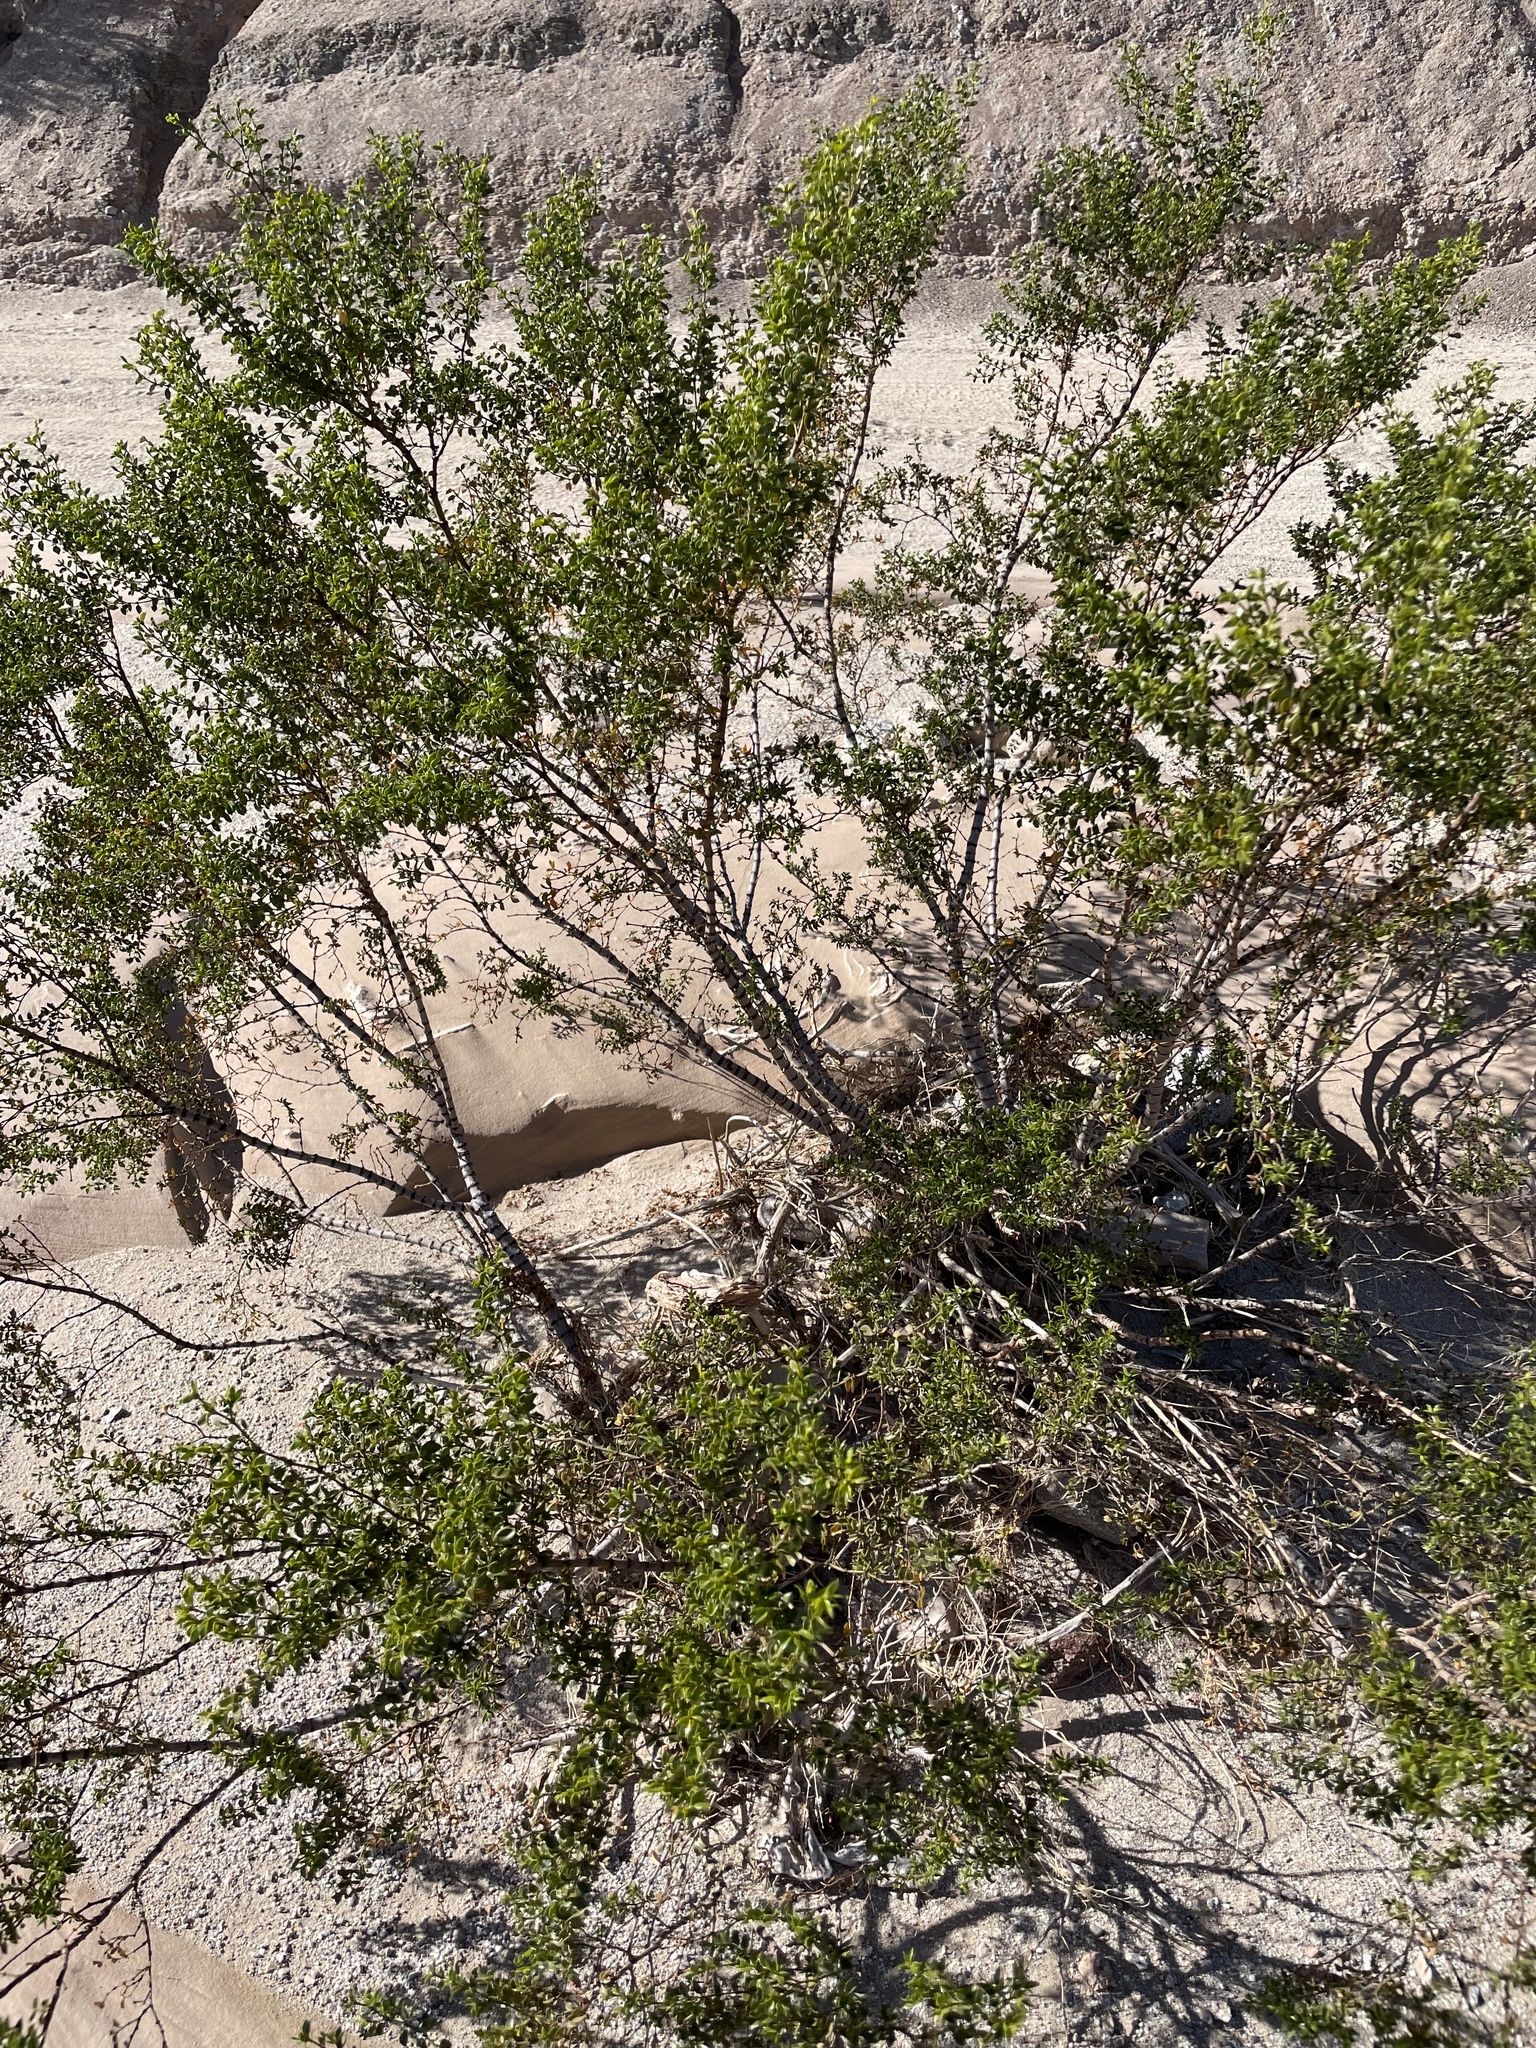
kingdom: Plantae
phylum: Tracheophyta
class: Magnoliopsida
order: Zygophyllales
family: Zygophyllaceae
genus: Larrea
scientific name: Larrea tridentata
